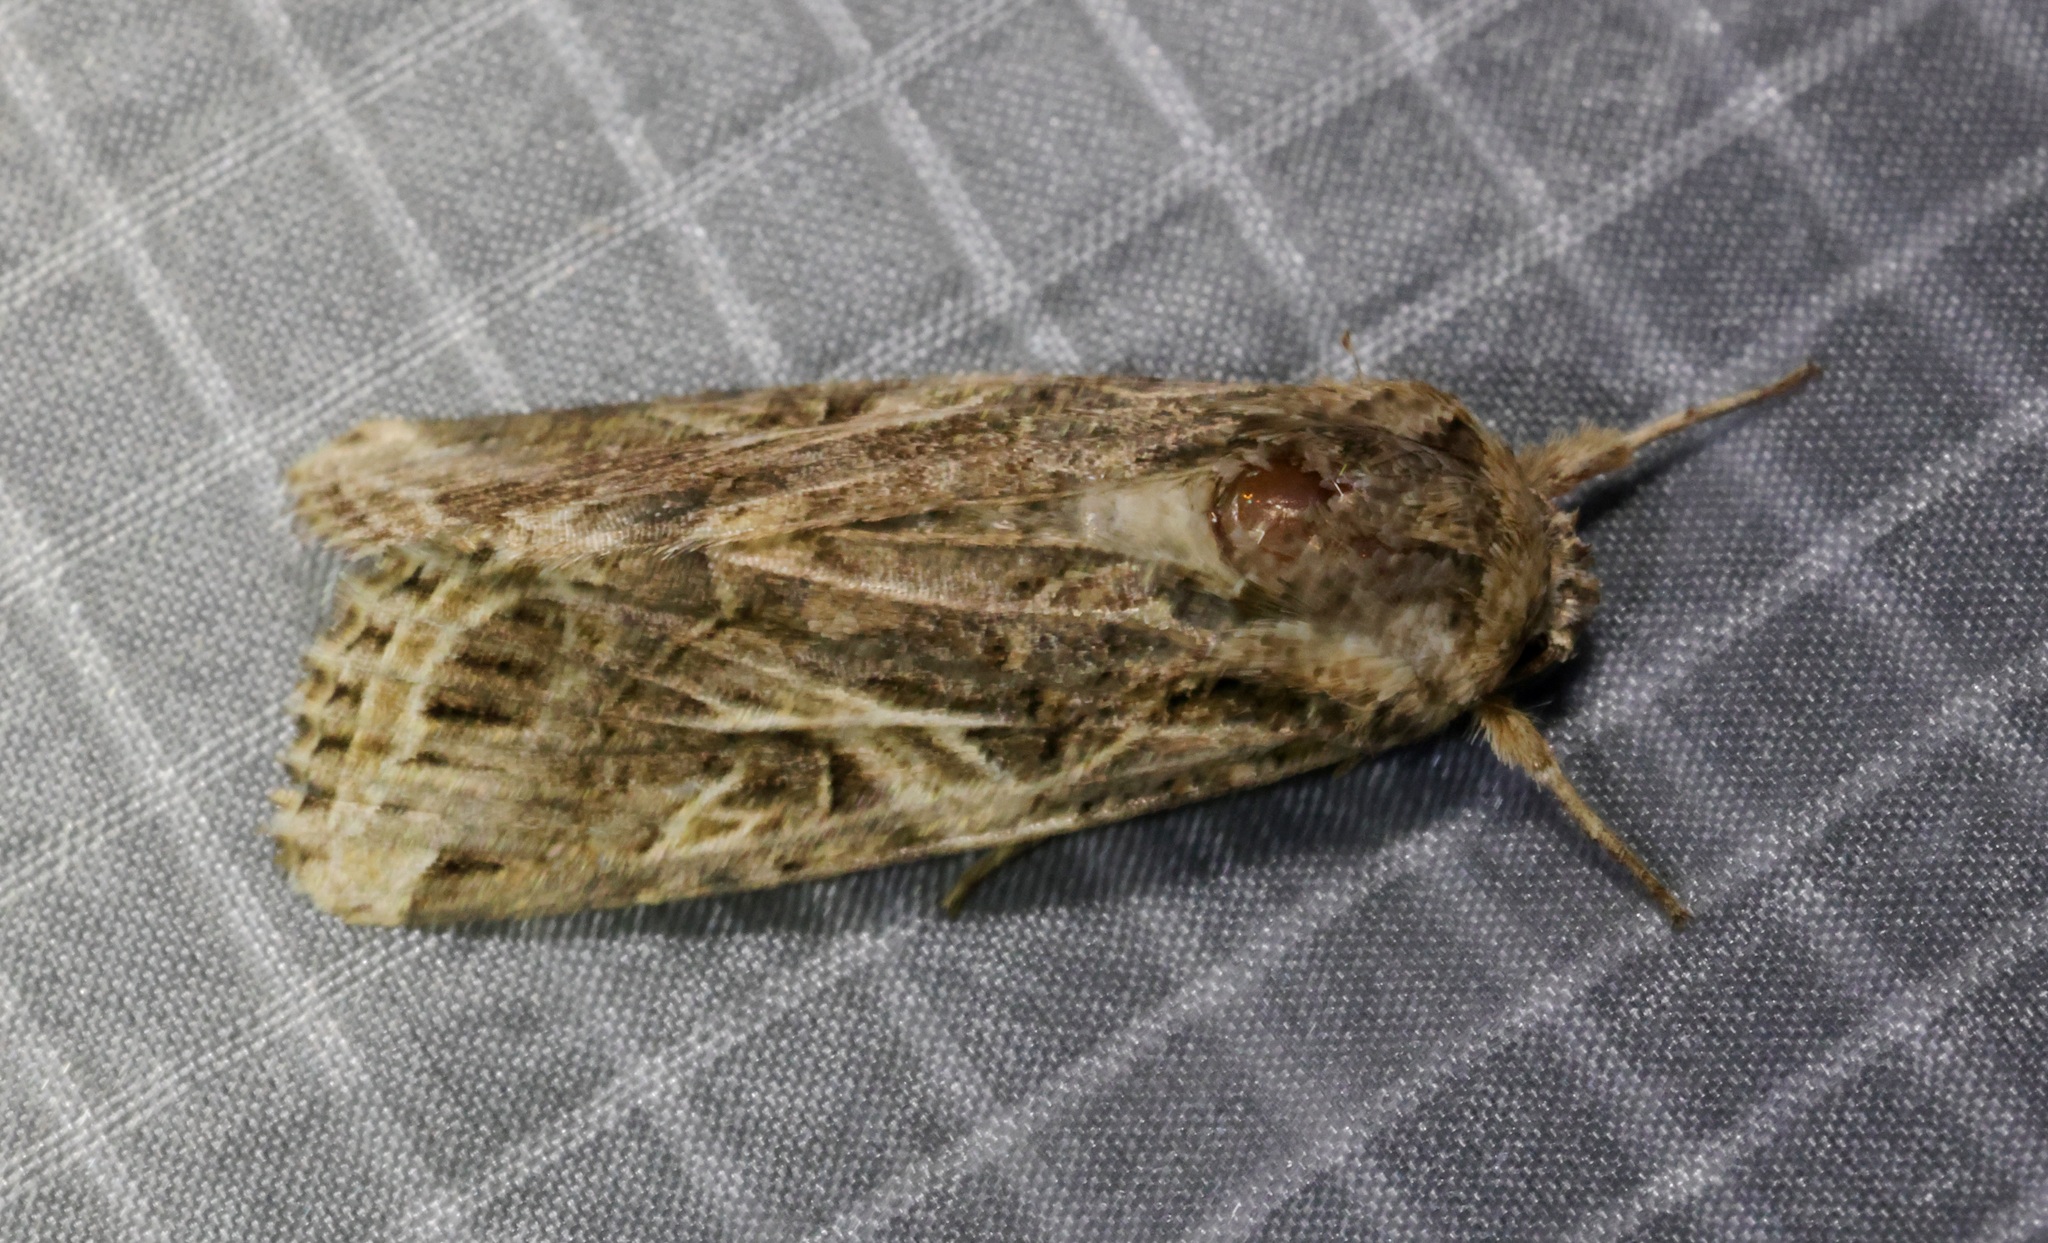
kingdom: Animalia
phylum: Arthropoda
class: Insecta
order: Lepidoptera
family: Noctuidae
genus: Spodoptera
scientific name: Spodoptera litura
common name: Asian cotton leafworm
